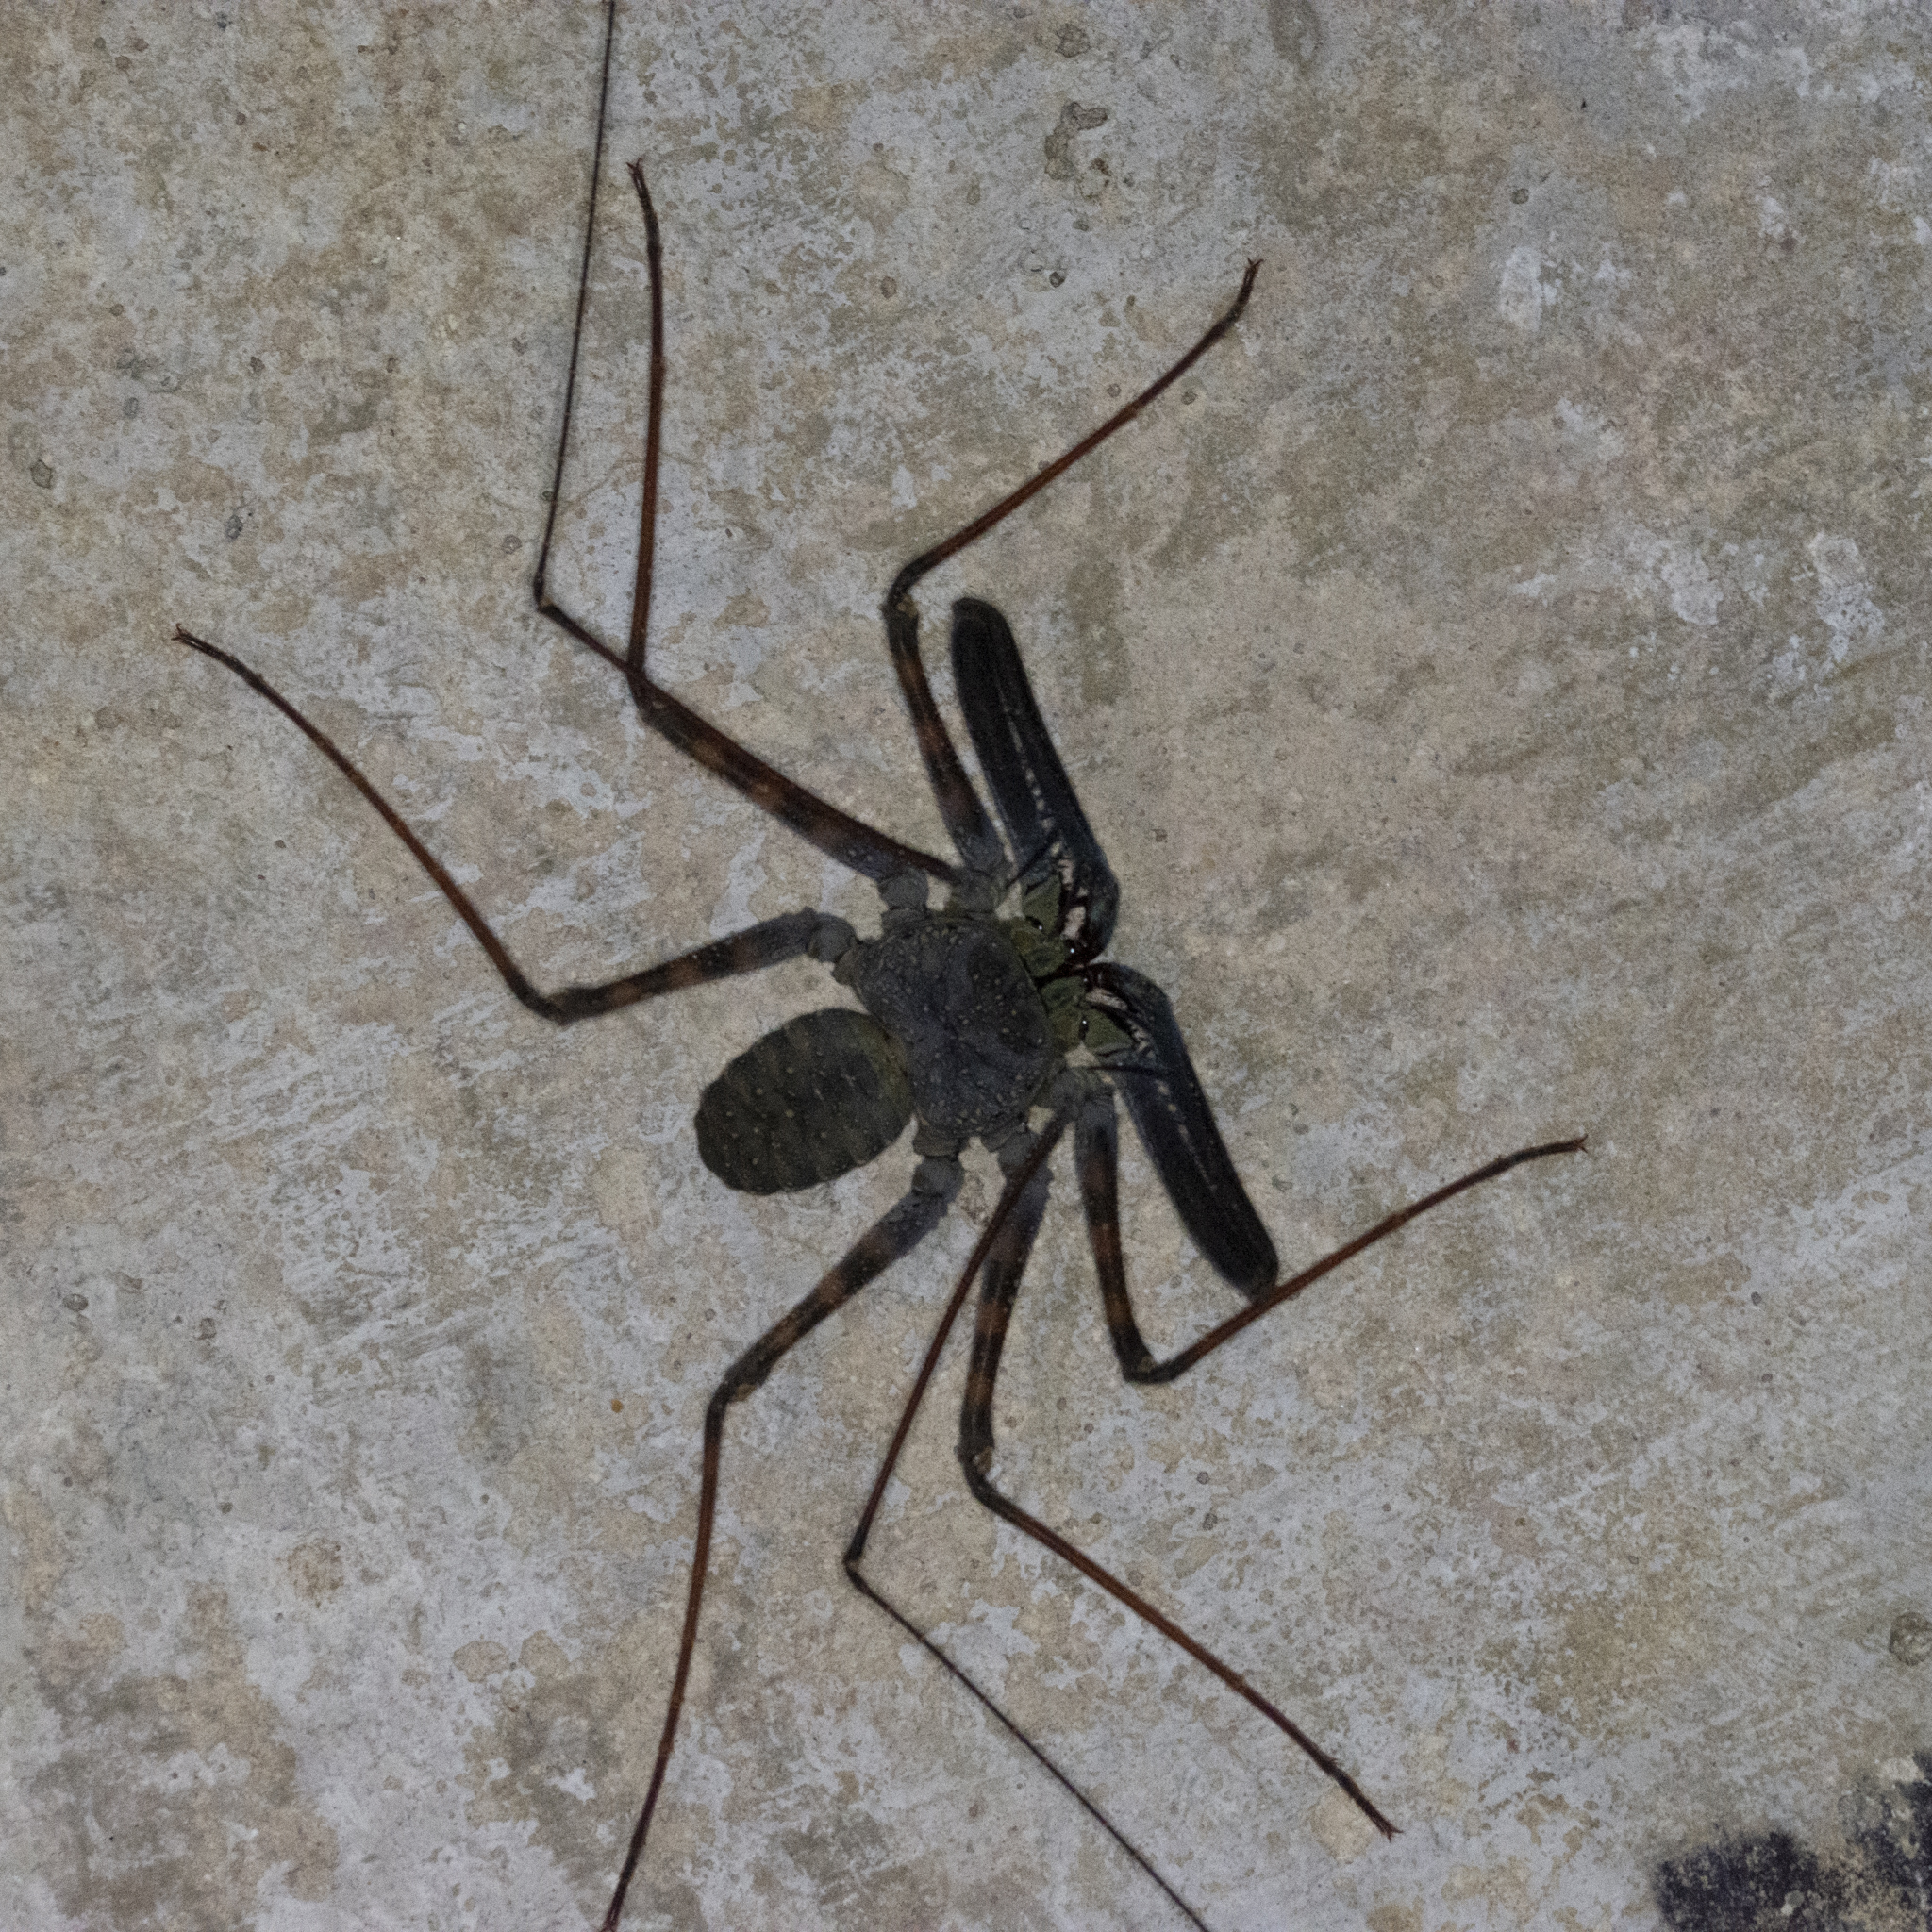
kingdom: Animalia
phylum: Arthropoda
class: Arachnida
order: Amblypygi
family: Charontidae
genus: Charon
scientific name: Charon grayi
